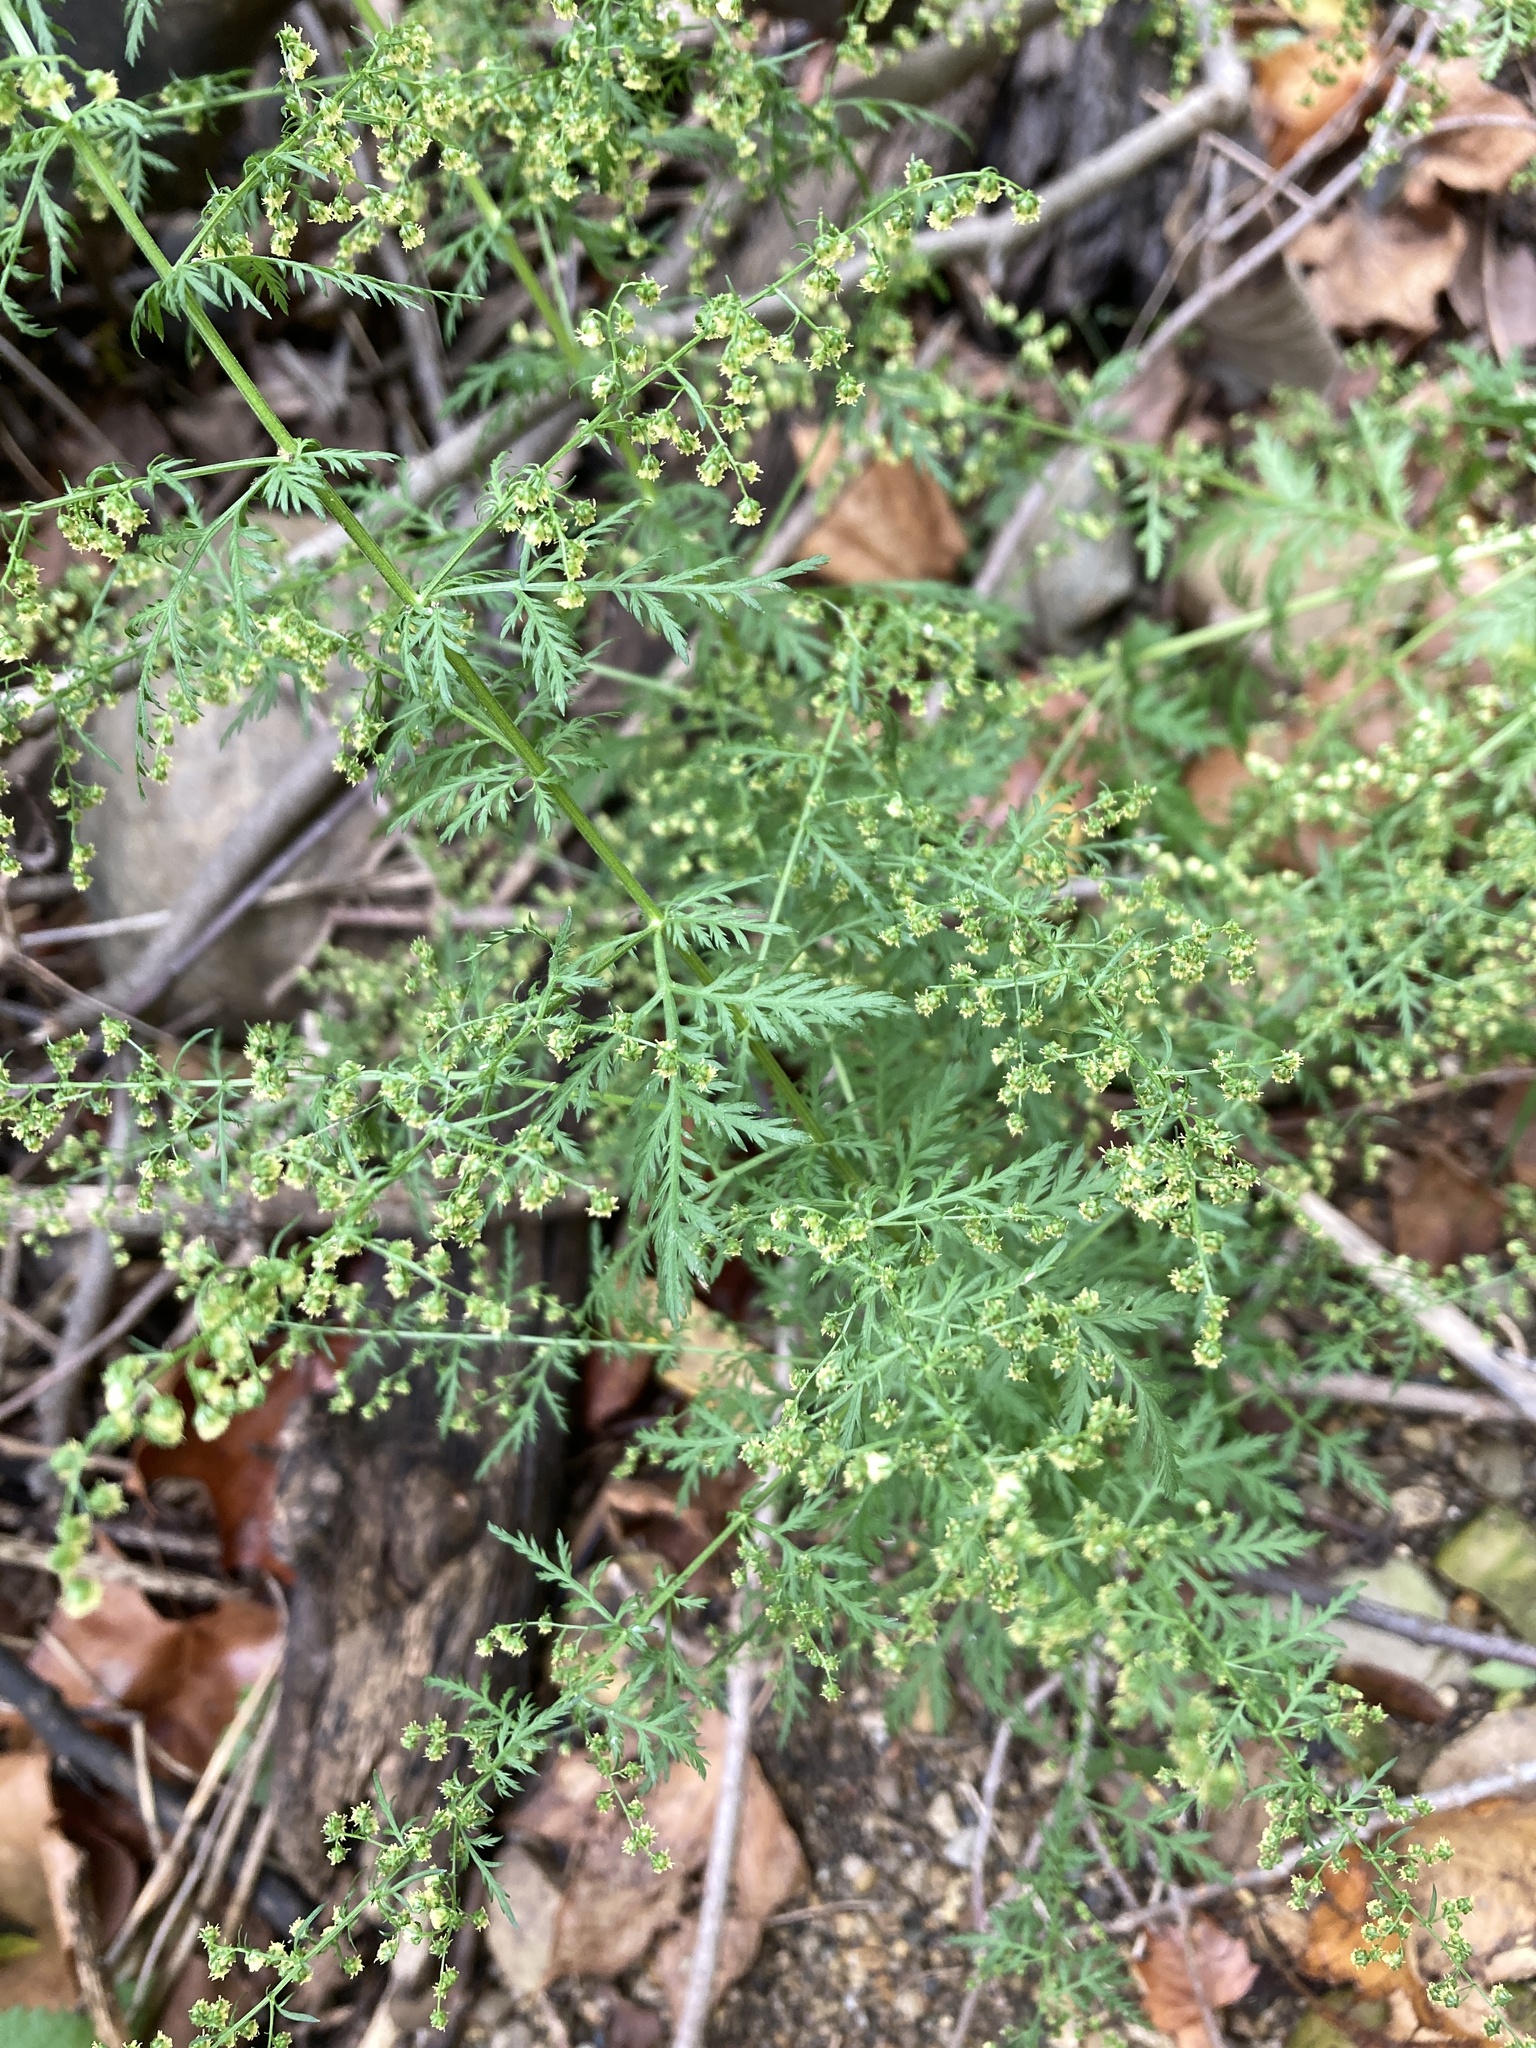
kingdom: Plantae
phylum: Tracheophyta
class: Magnoliopsida
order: Asterales
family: Asteraceae
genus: Artemisia
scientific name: Artemisia annua
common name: Sweet sagewort
